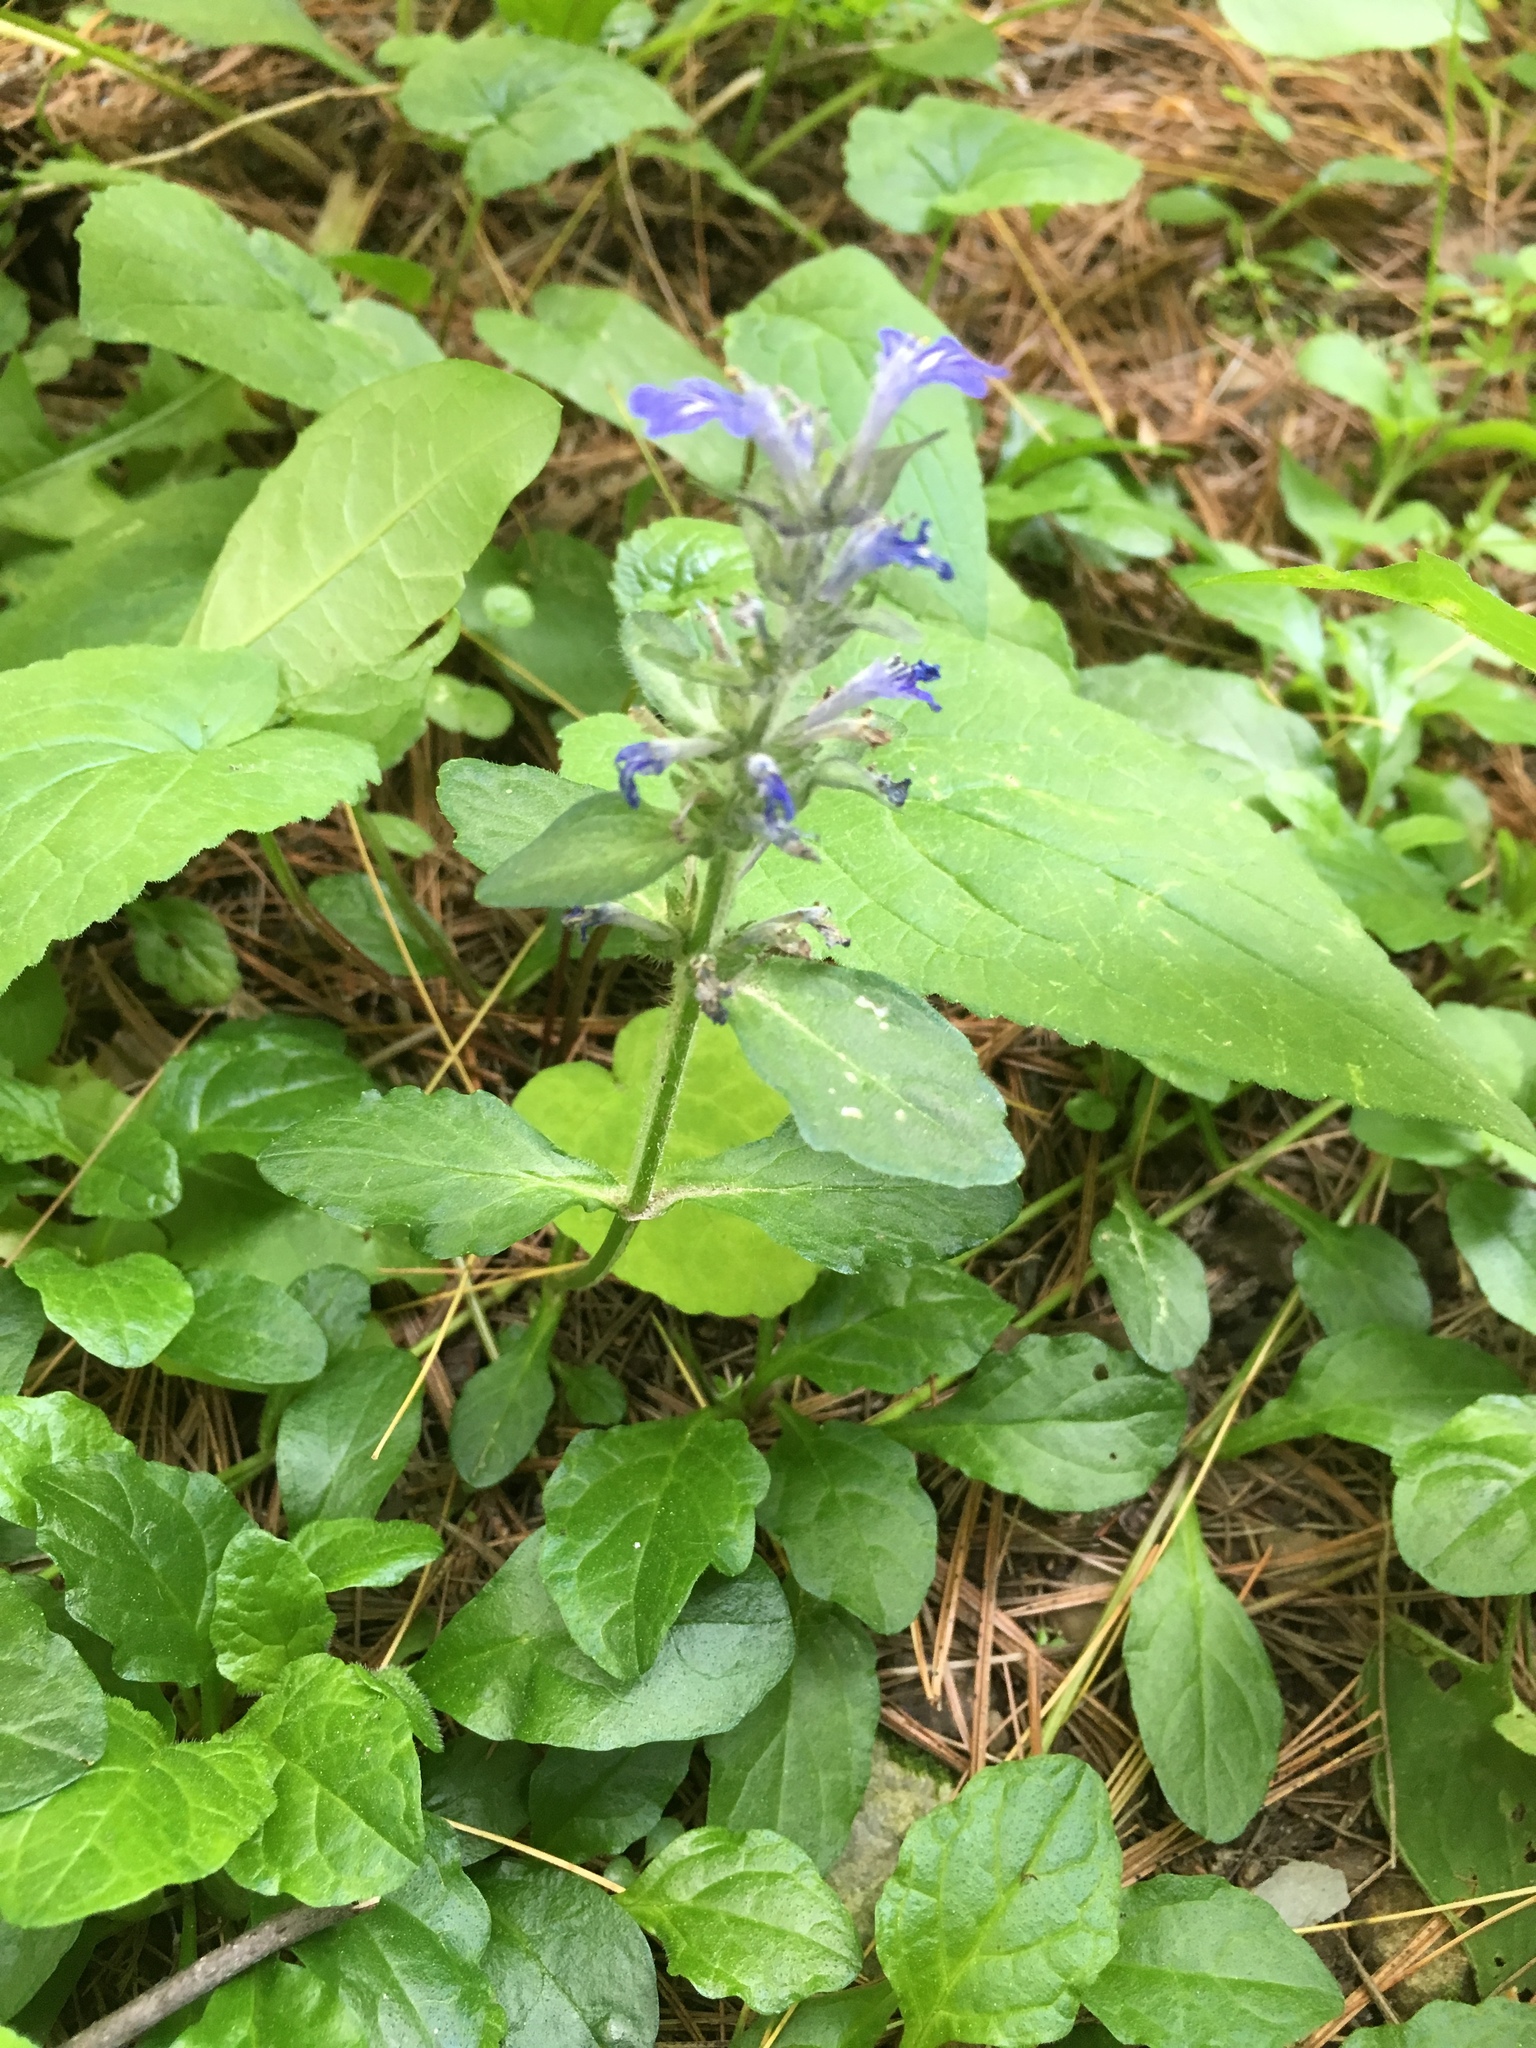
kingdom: Plantae
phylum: Tracheophyta
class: Magnoliopsida
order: Lamiales
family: Lamiaceae
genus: Ajuga
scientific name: Ajuga reptans
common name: Bugle
